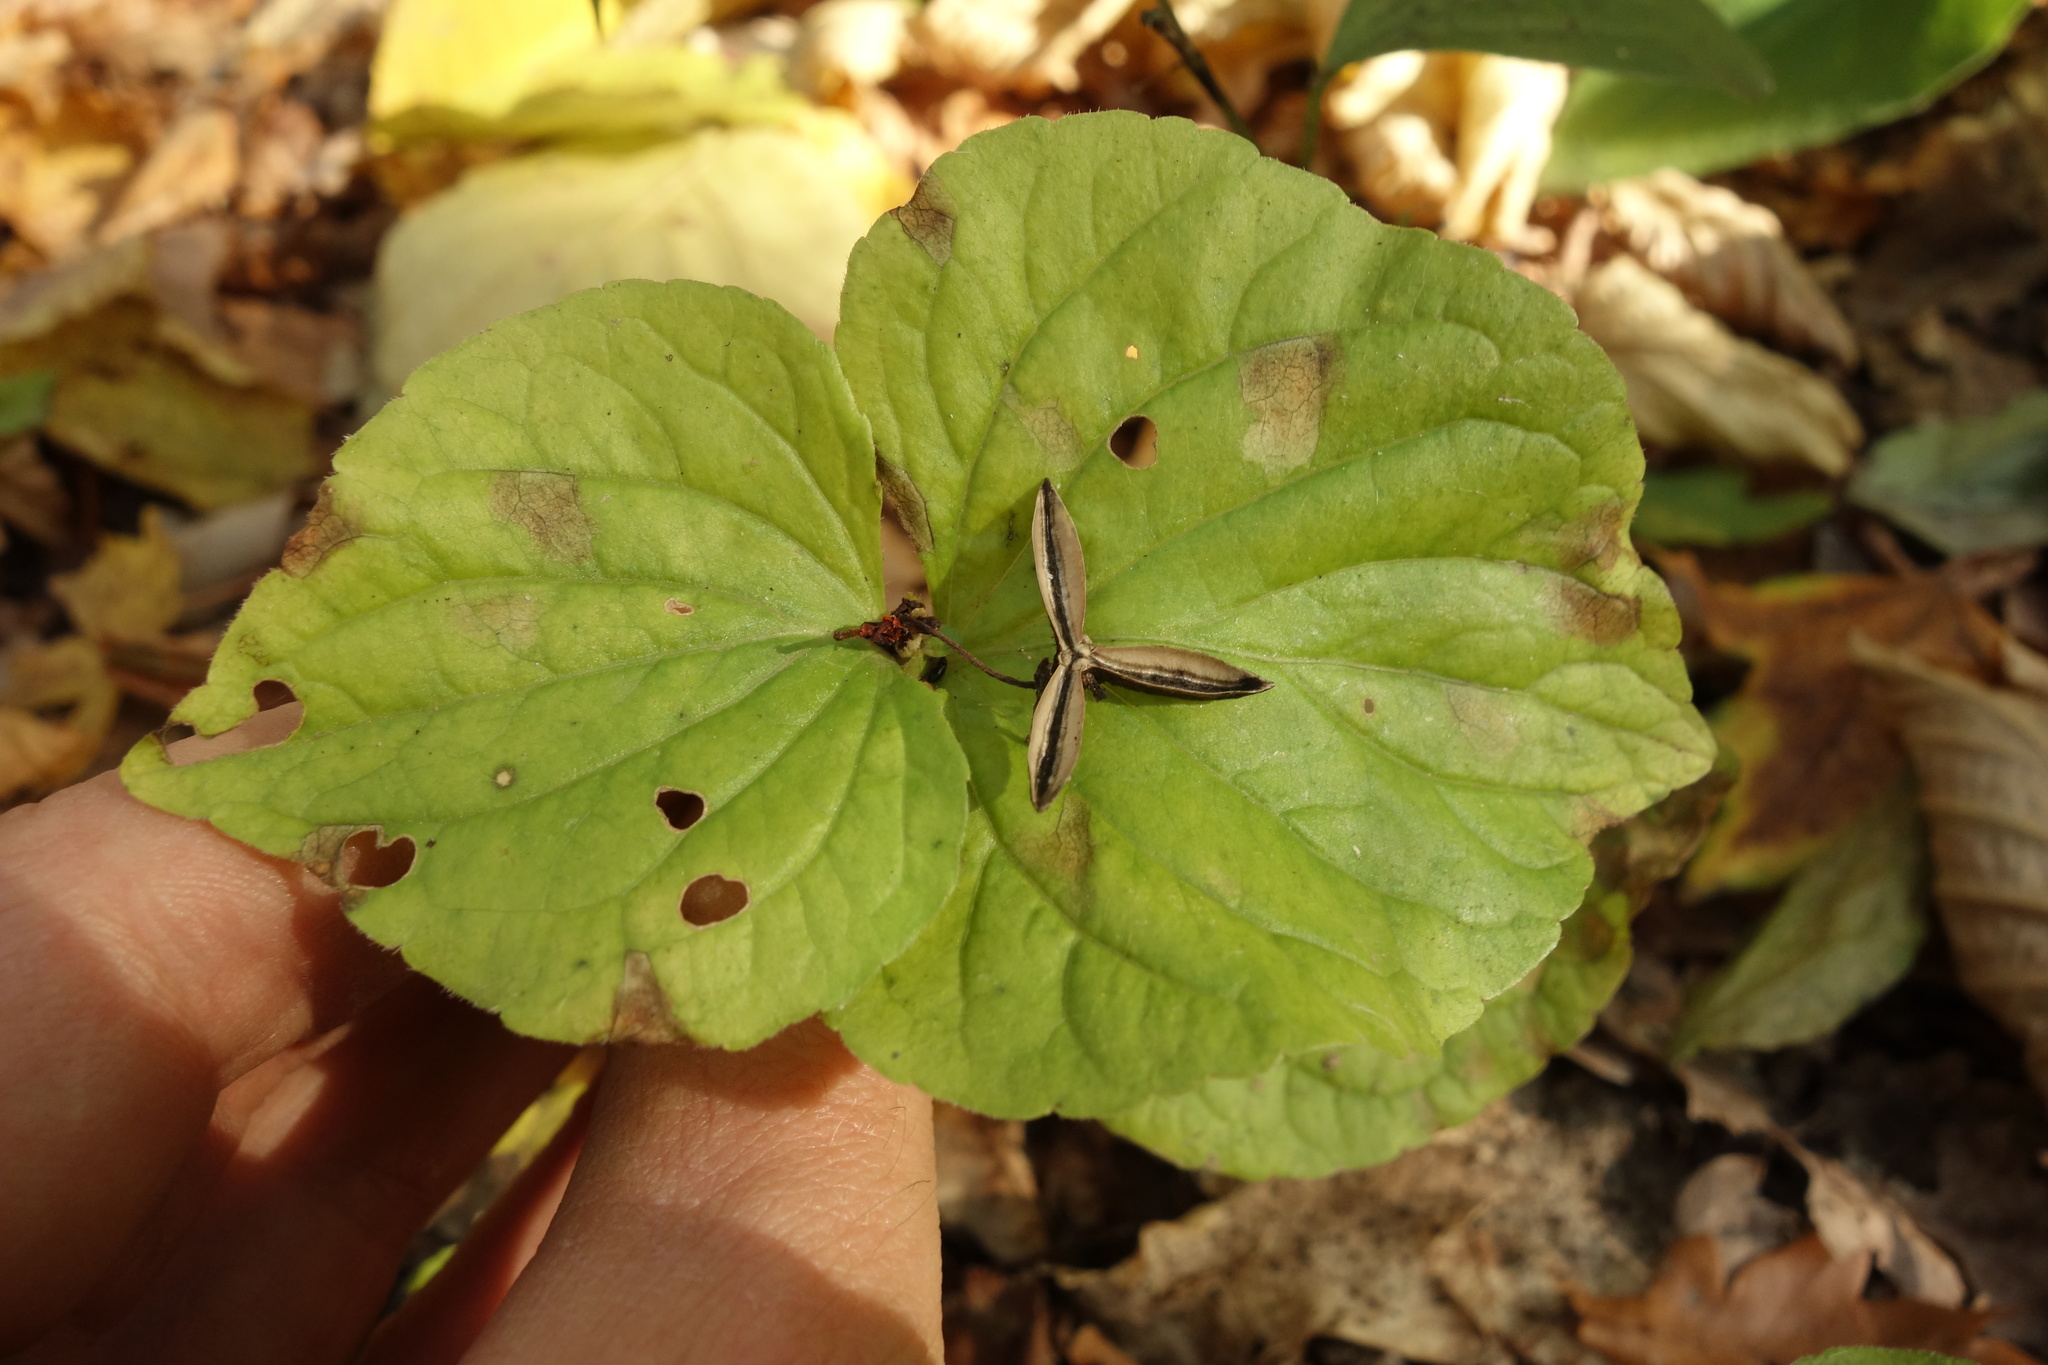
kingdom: Plantae
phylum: Tracheophyta
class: Magnoliopsida
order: Malpighiales
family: Violaceae
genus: Viola
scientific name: Viola mirabilis
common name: Wonder violet
